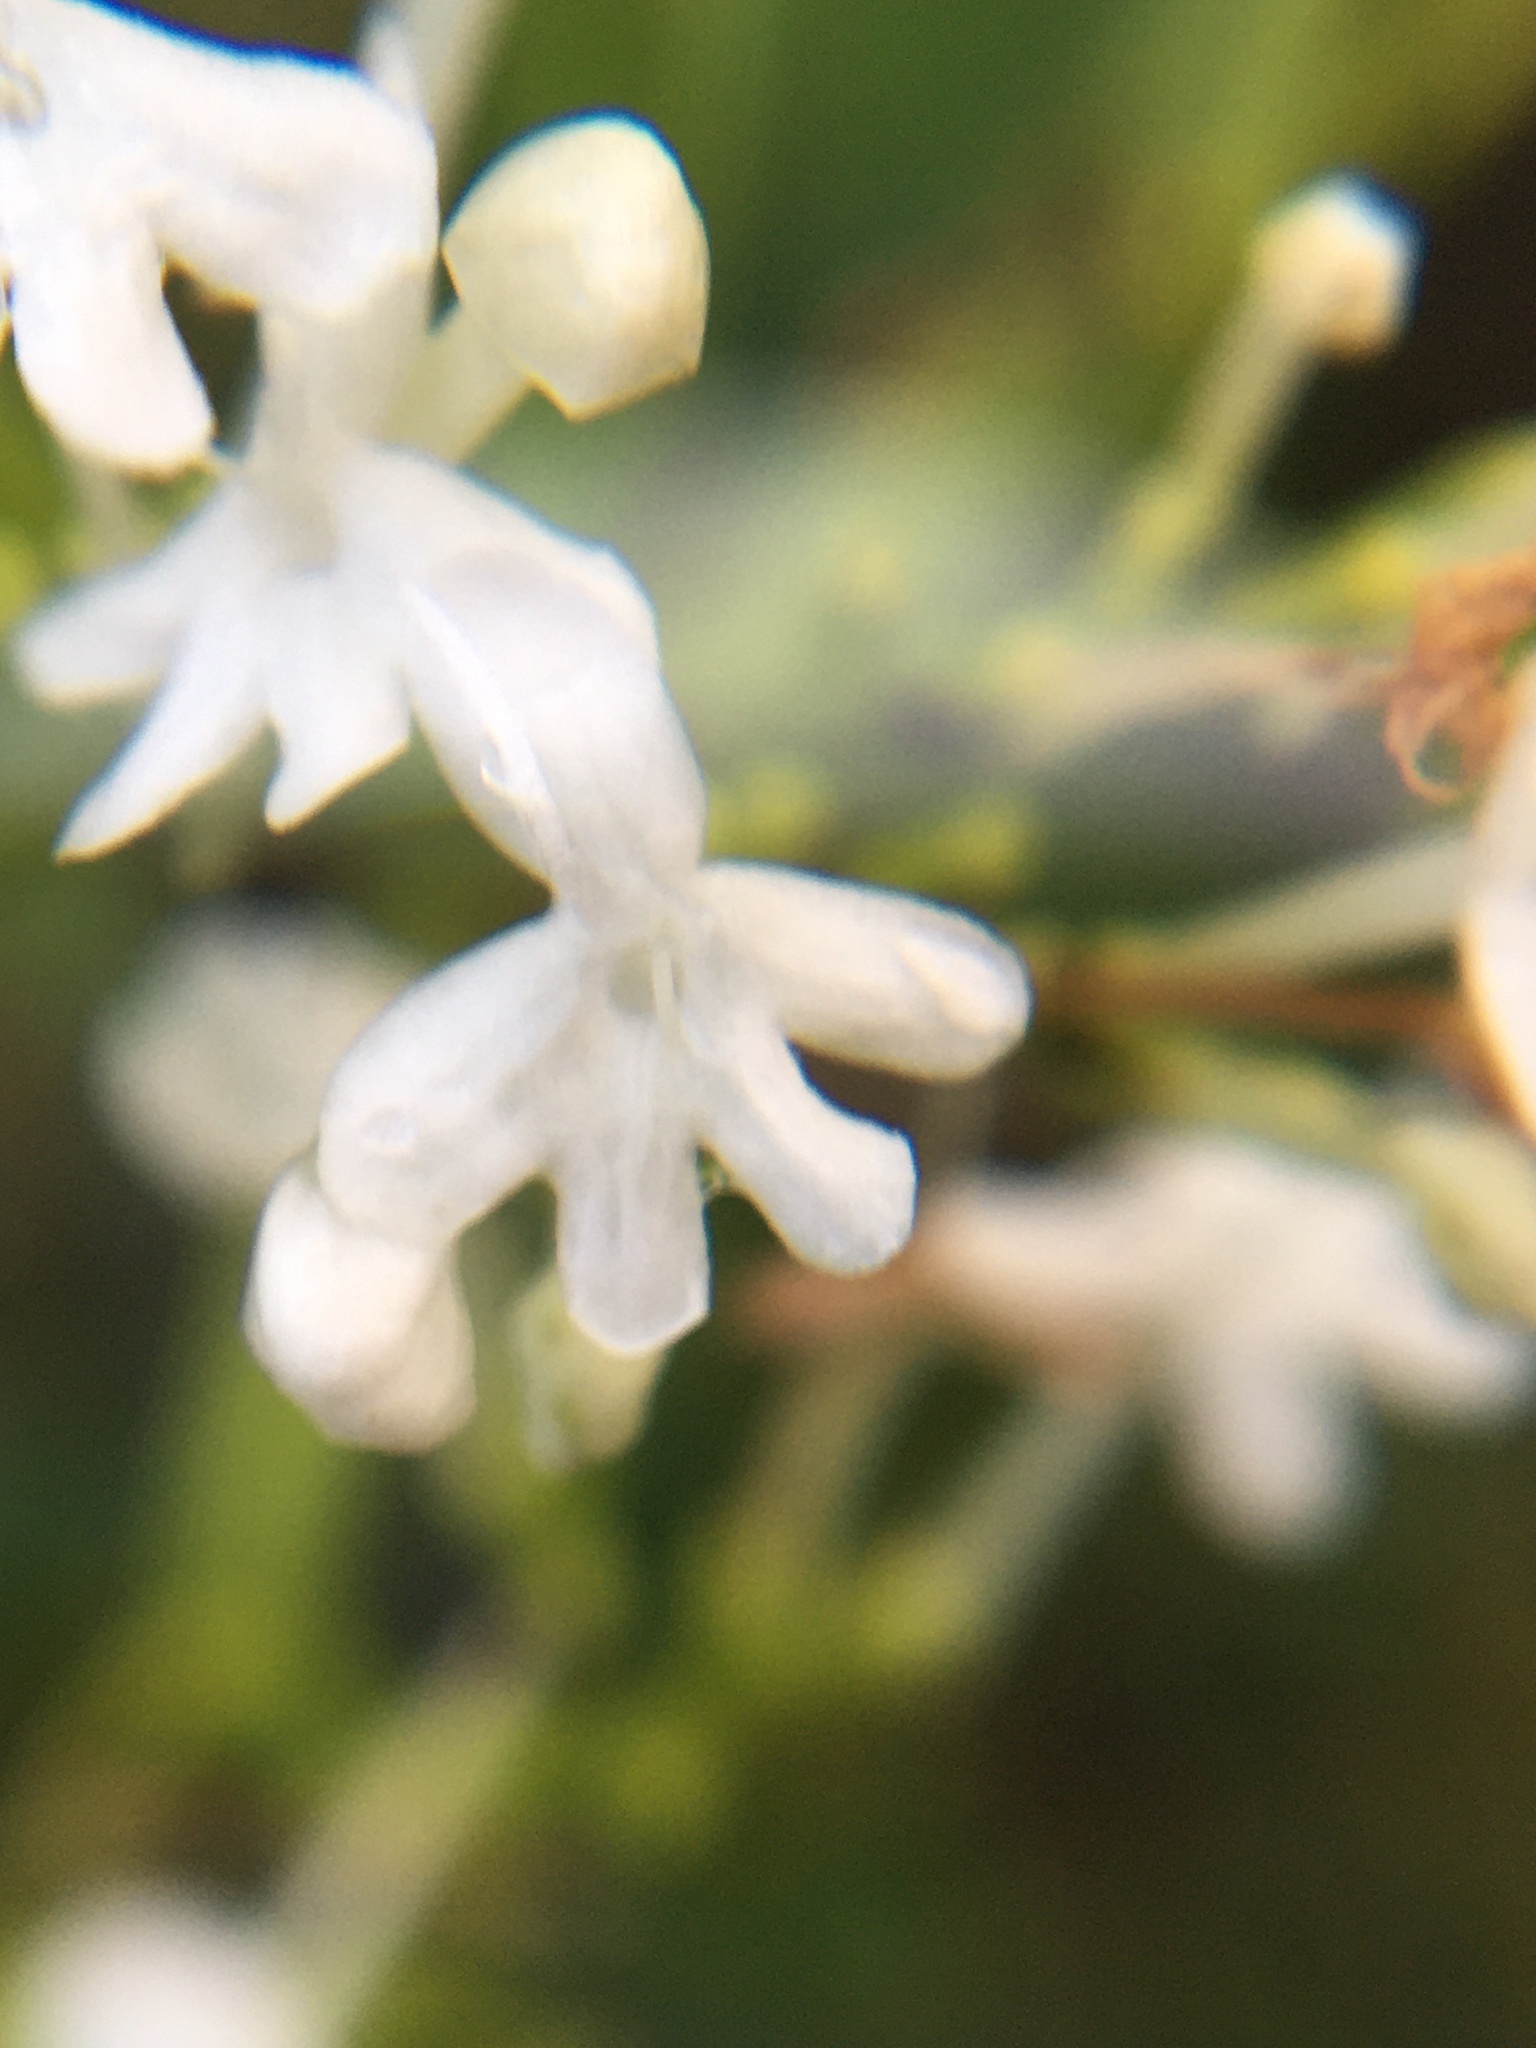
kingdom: Plantae
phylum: Tracheophyta
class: Magnoliopsida
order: Dipsacales
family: Caprifoliaceae
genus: Centranthus
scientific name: Centranthus ruber
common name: Red valerian
